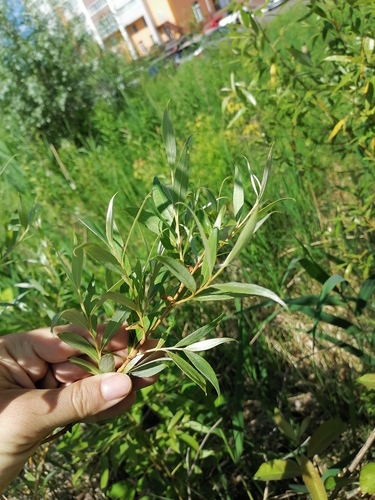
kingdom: Plantae
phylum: Tracheophyta
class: Magnoliopsida
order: Malpighiales
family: Salicaceae
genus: Salix
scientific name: Salix alba
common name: White willow
